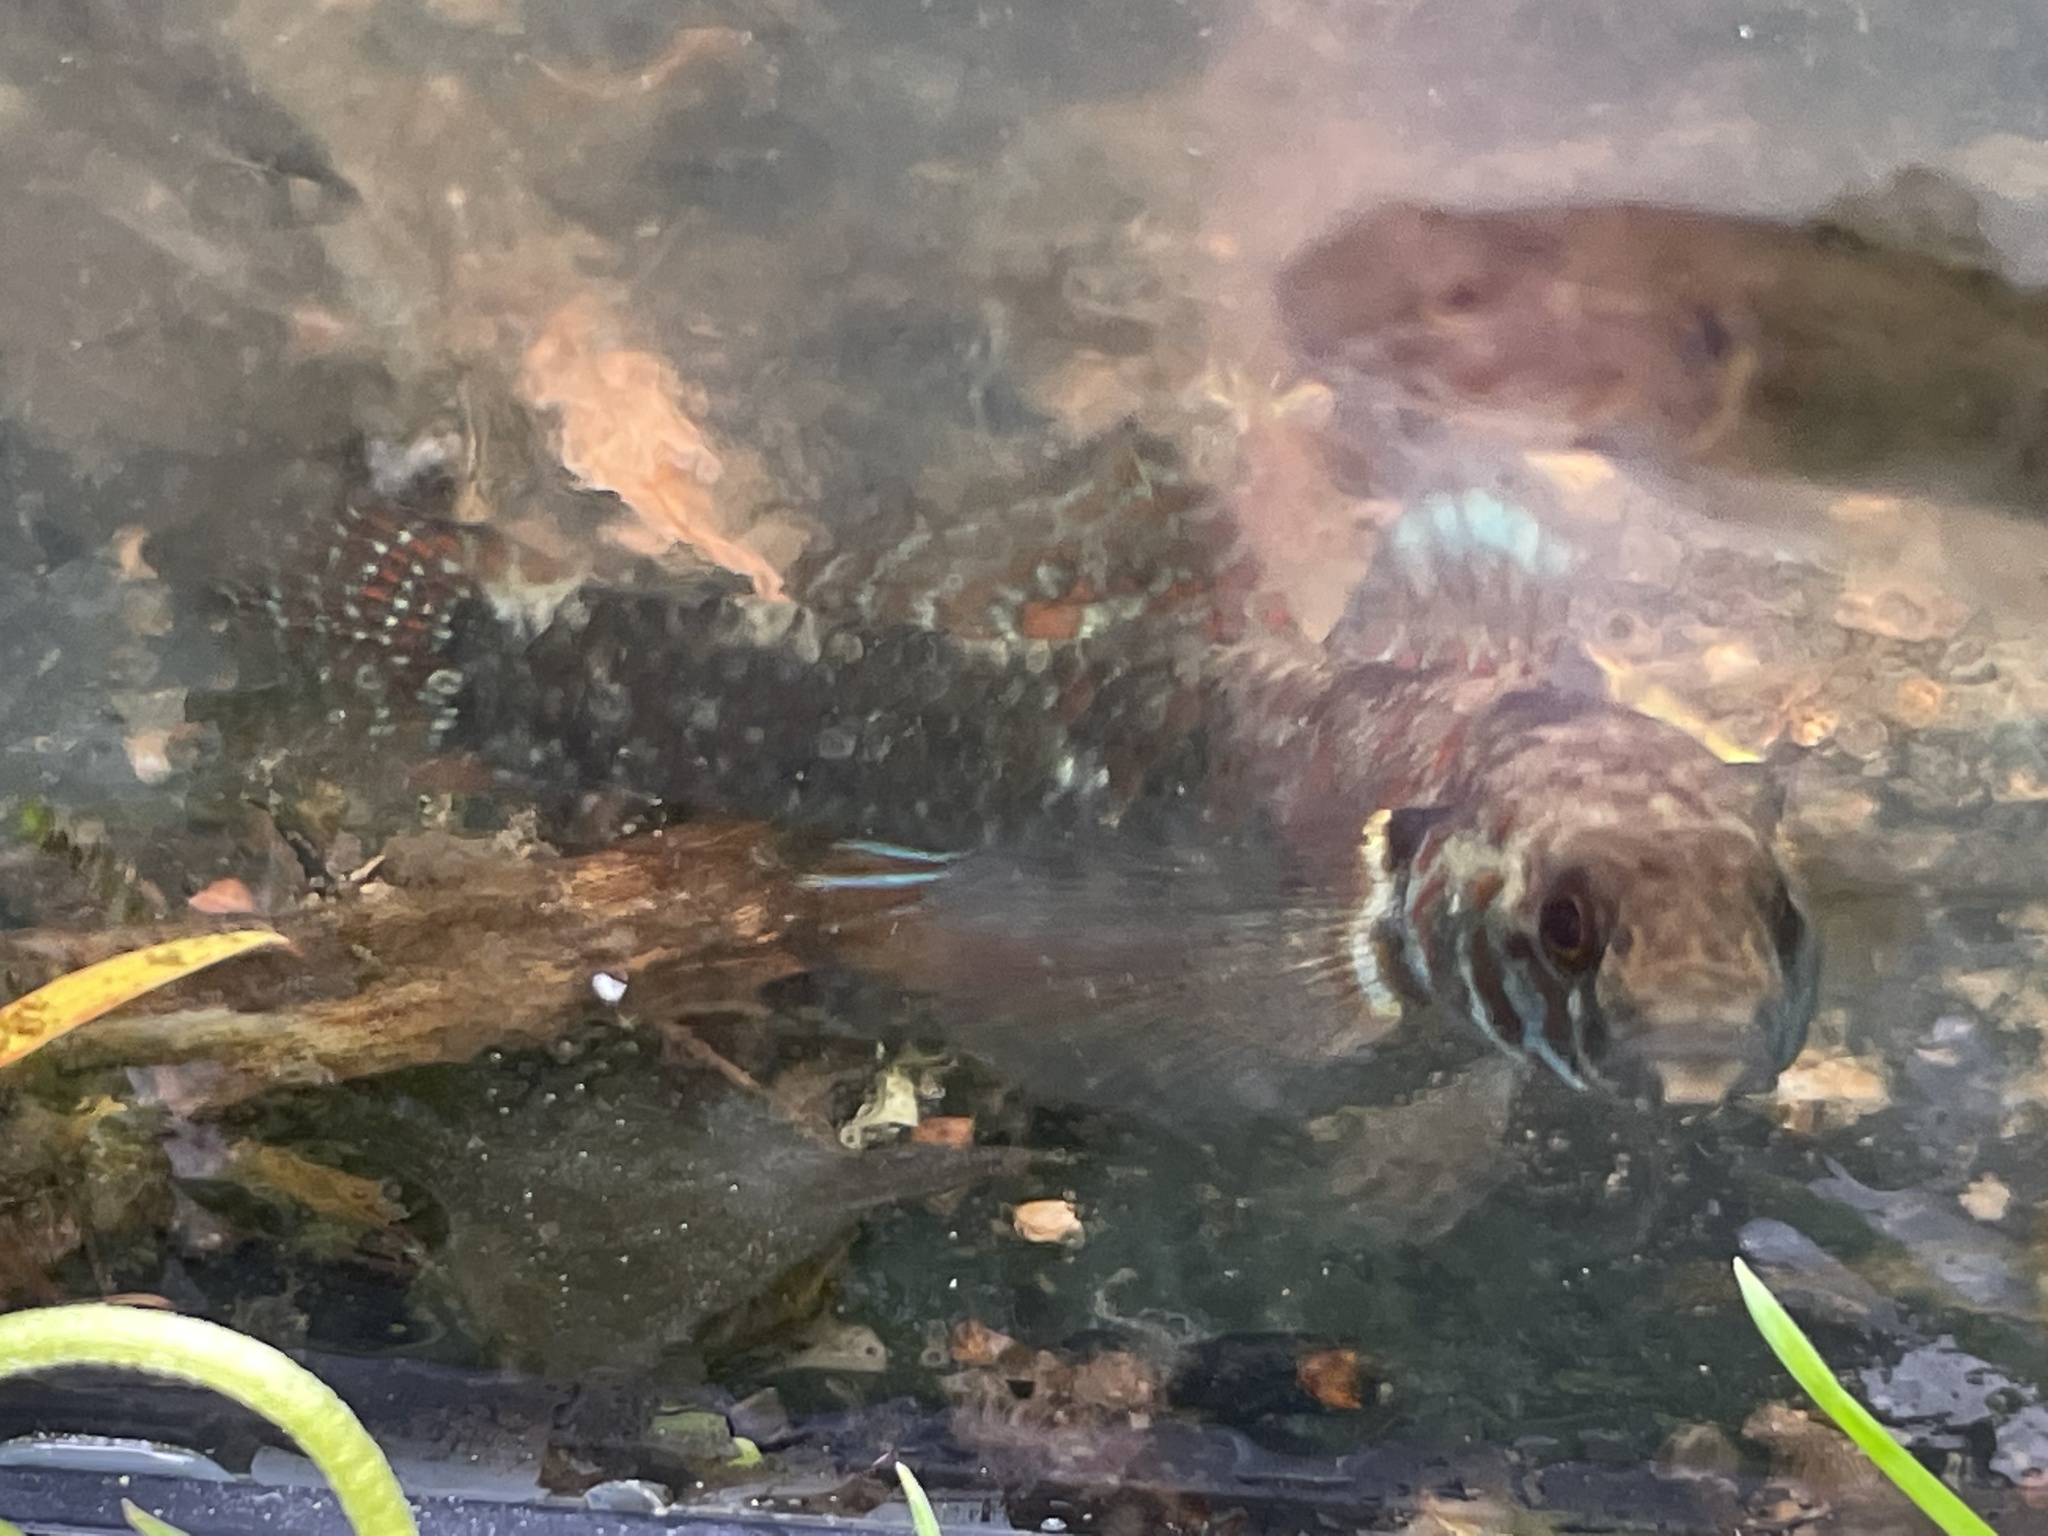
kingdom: Animalia
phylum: Chordata
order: Perciformes
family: Eleotridae
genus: Gobiomorphus
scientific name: Gobiomorphus huttoni
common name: Redfin bully
